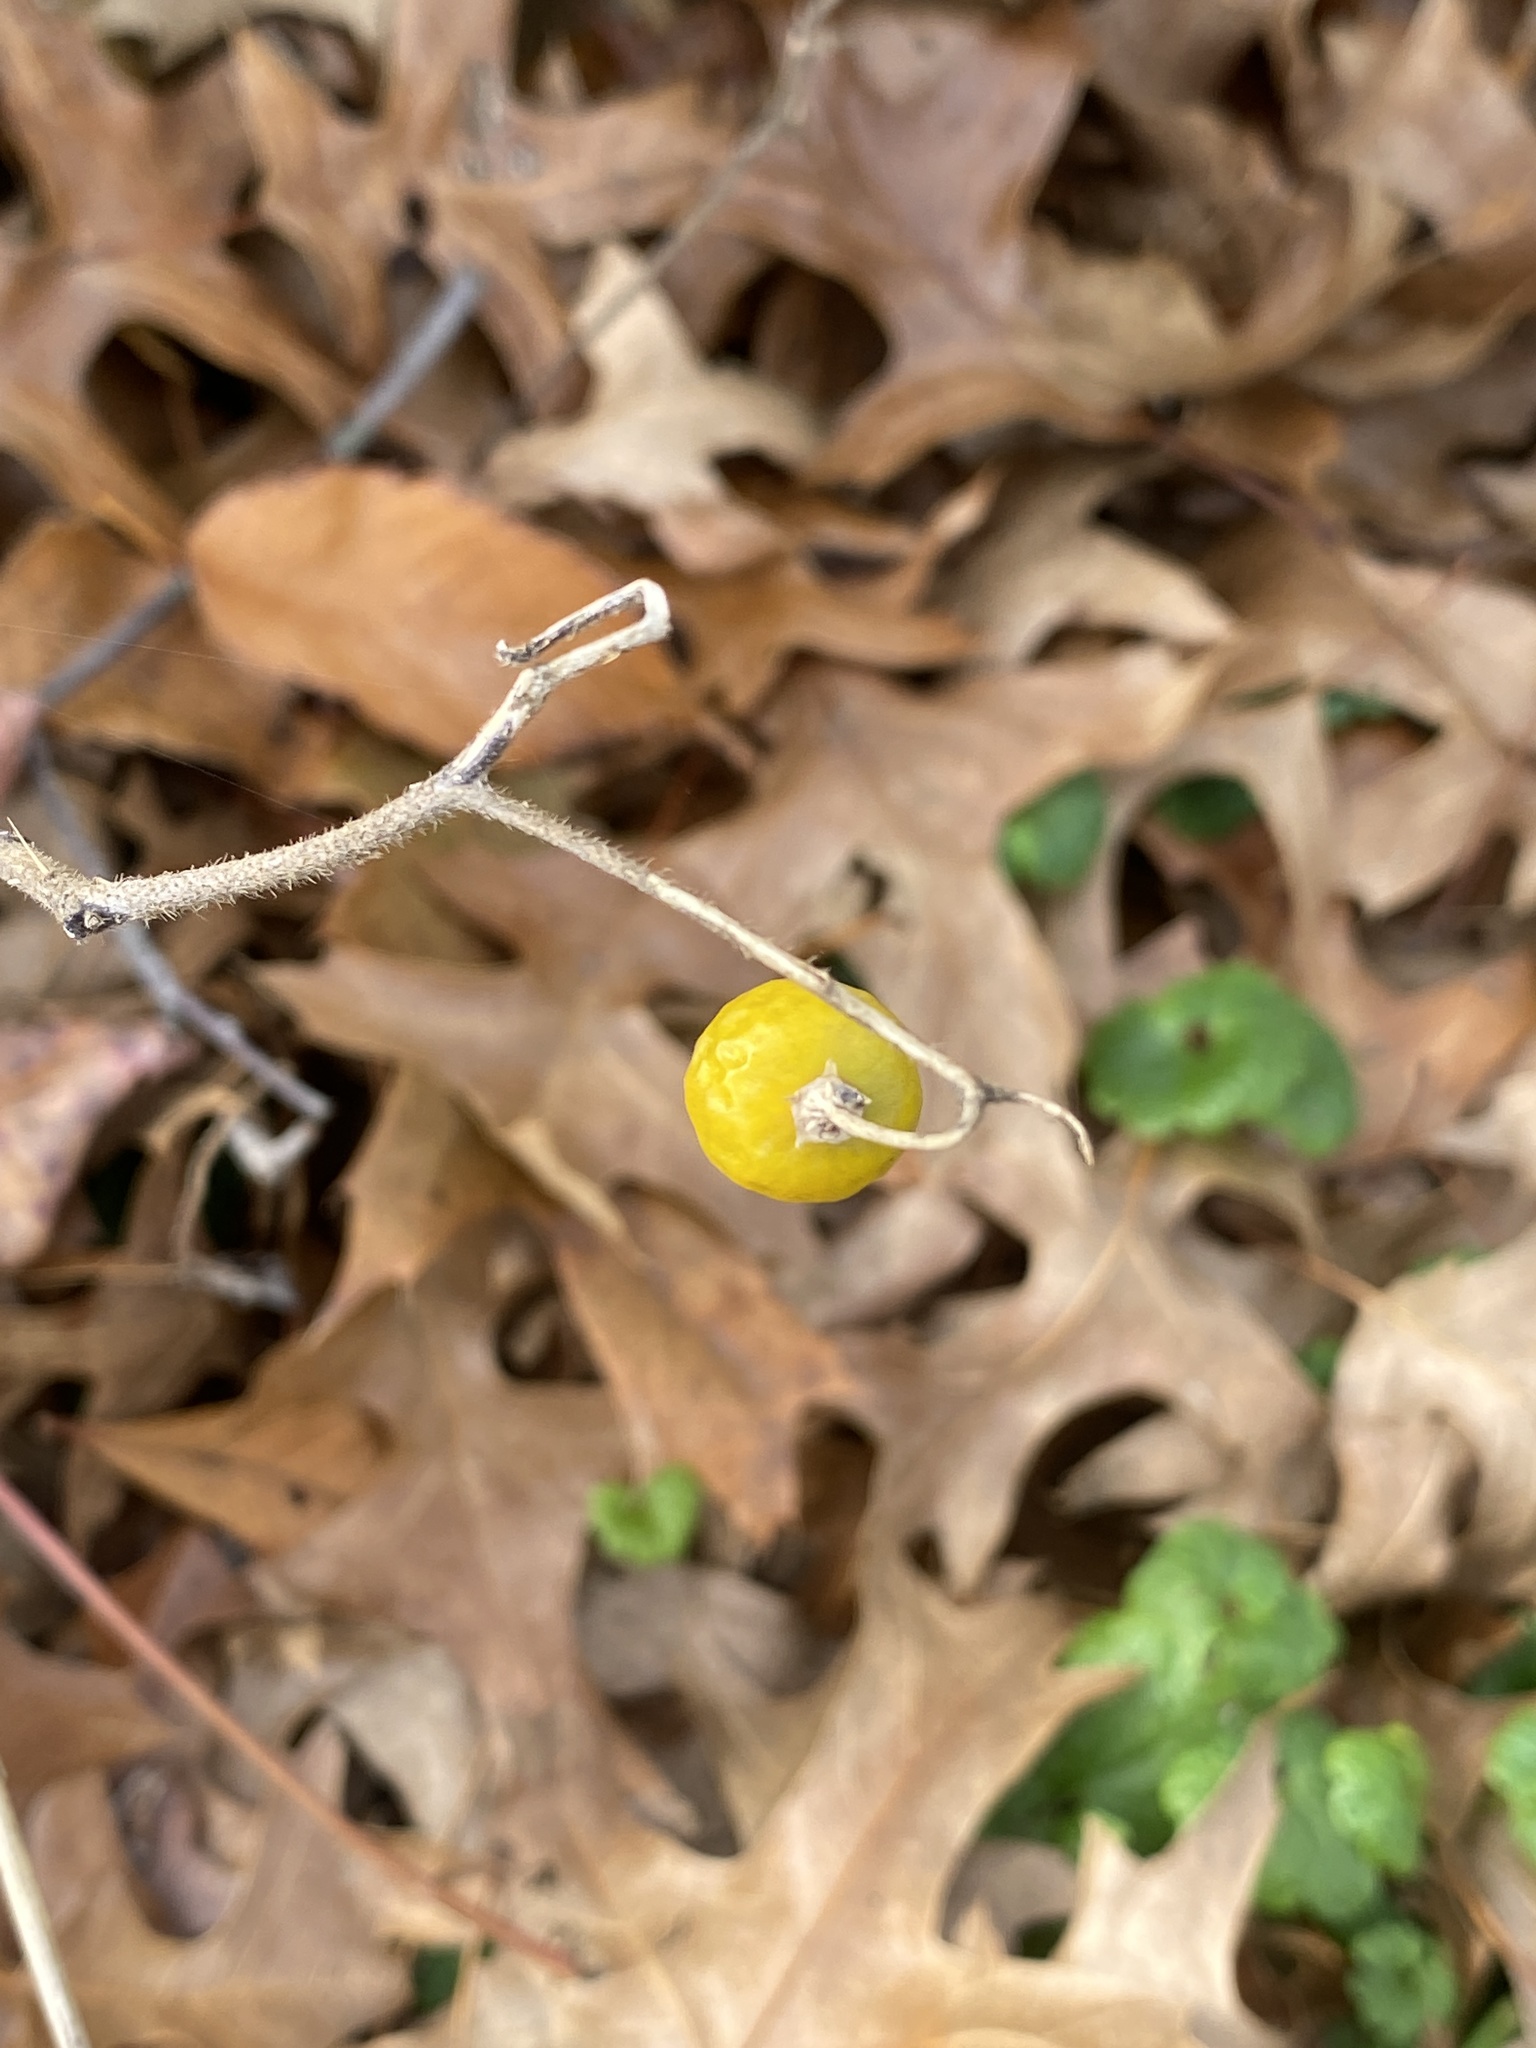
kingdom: Plantae
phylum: Tracheophyta
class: Magnoliopsida
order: Solanales
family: Solanaceae
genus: Solanum
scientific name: Solanum carolinense
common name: Horse-nettle
